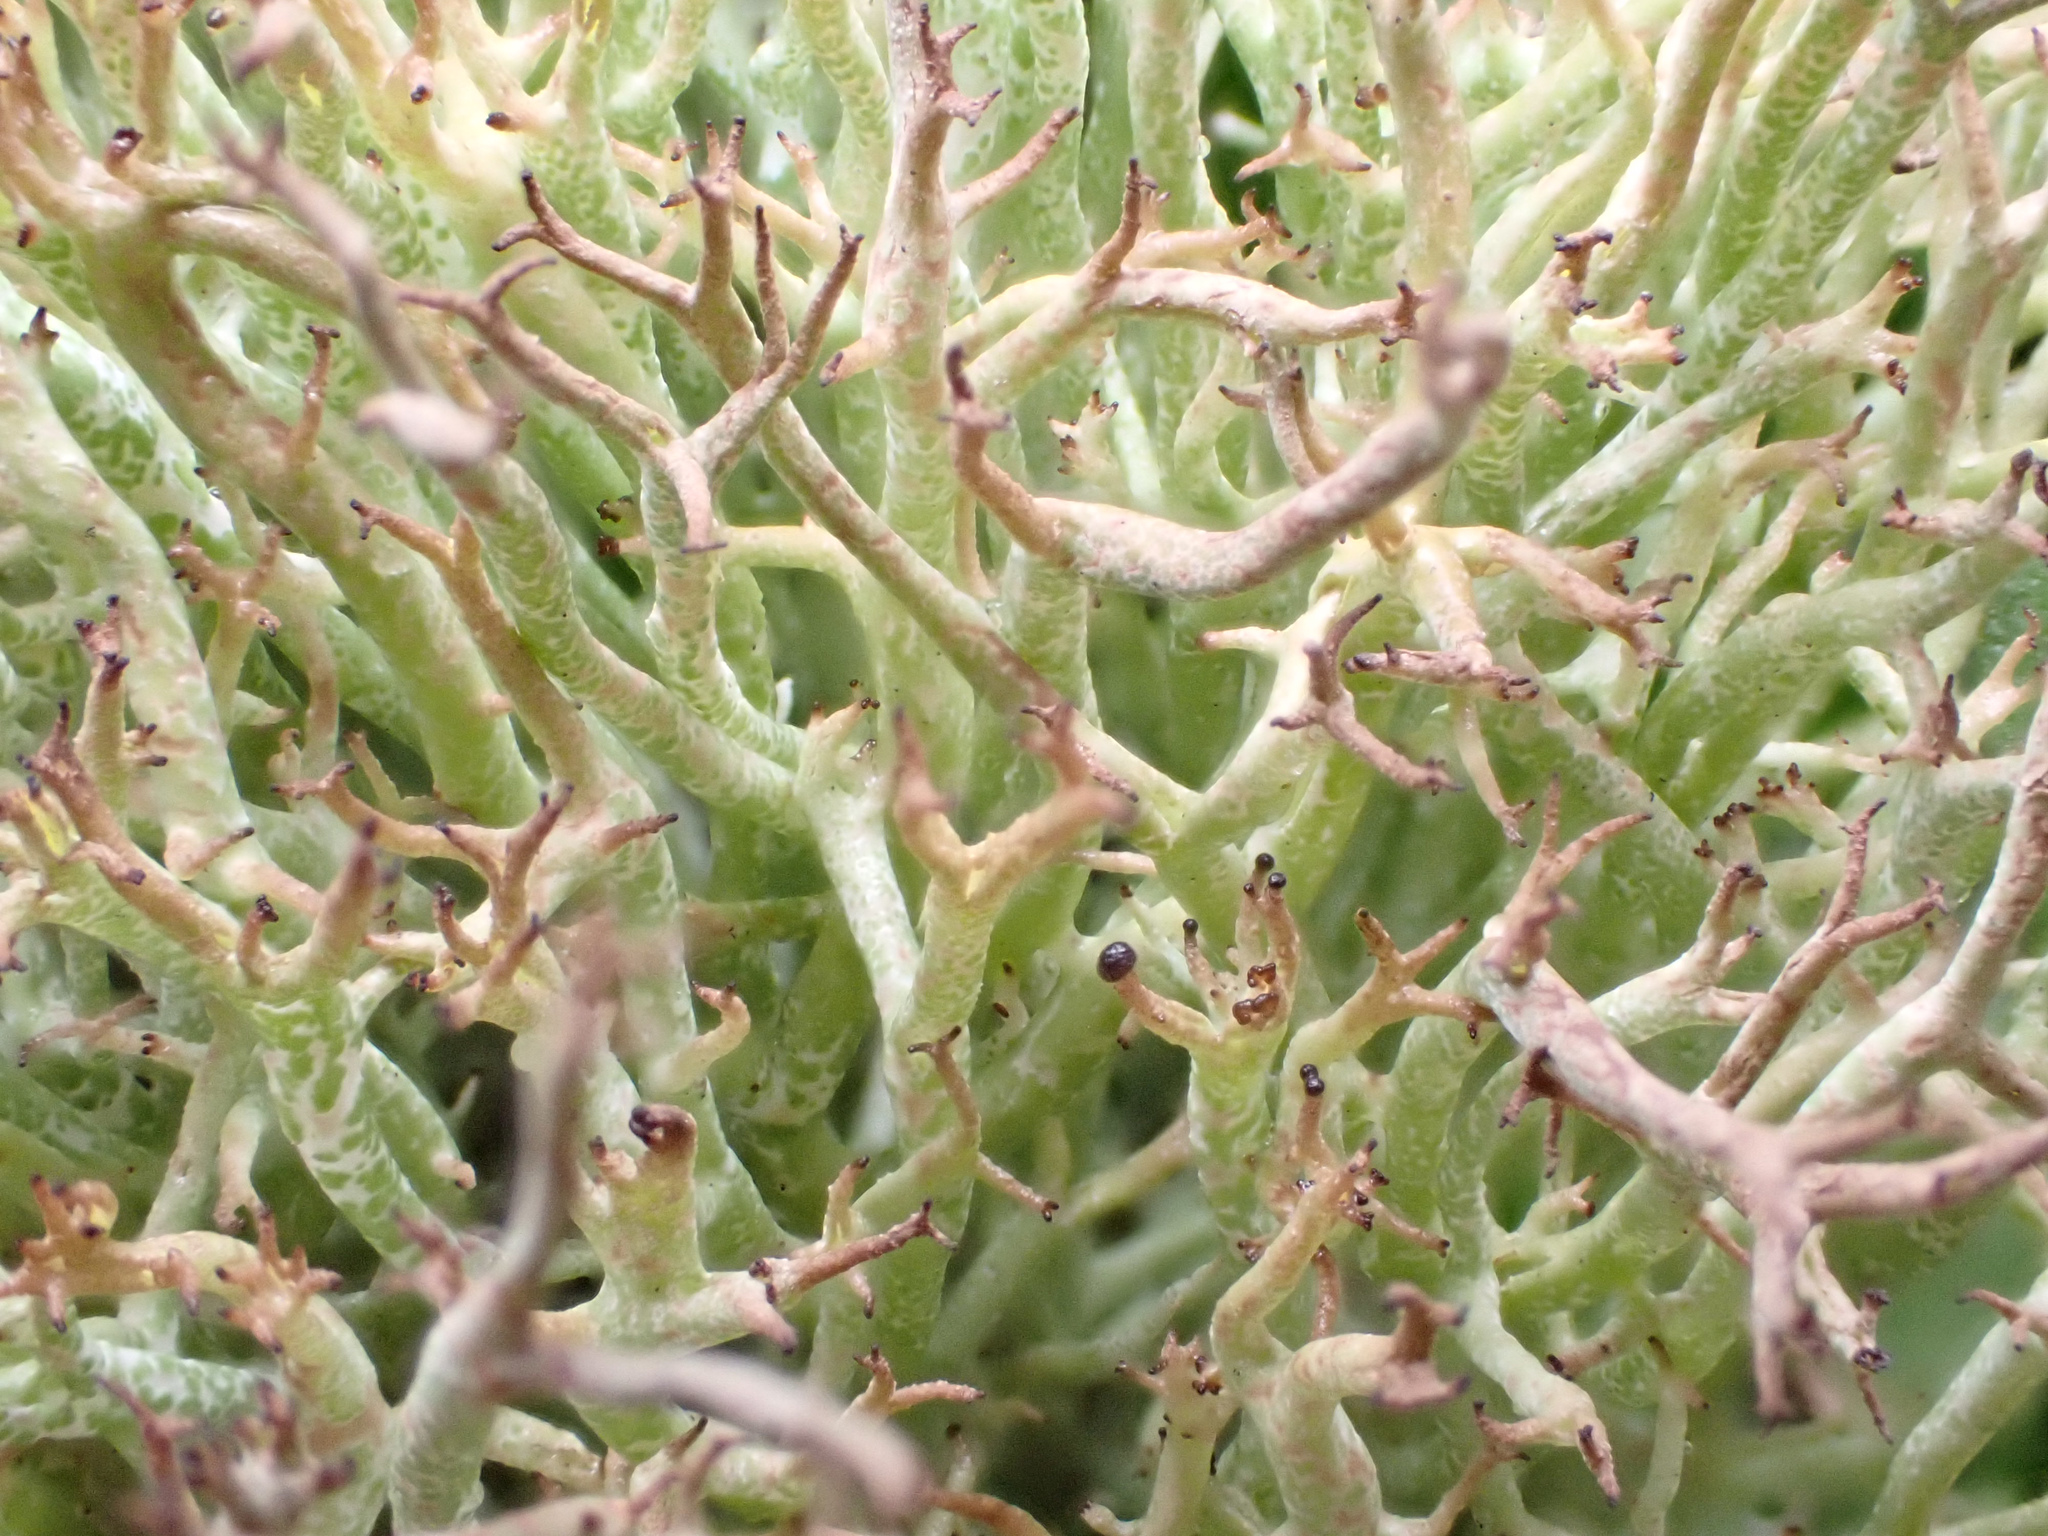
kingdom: Fungi
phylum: Ascomycota
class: Lecanoromycetes
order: Lecanorales
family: Cladoniaceae
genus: Cladonia
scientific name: Cladonia furcata
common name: Many-forked cladonia
